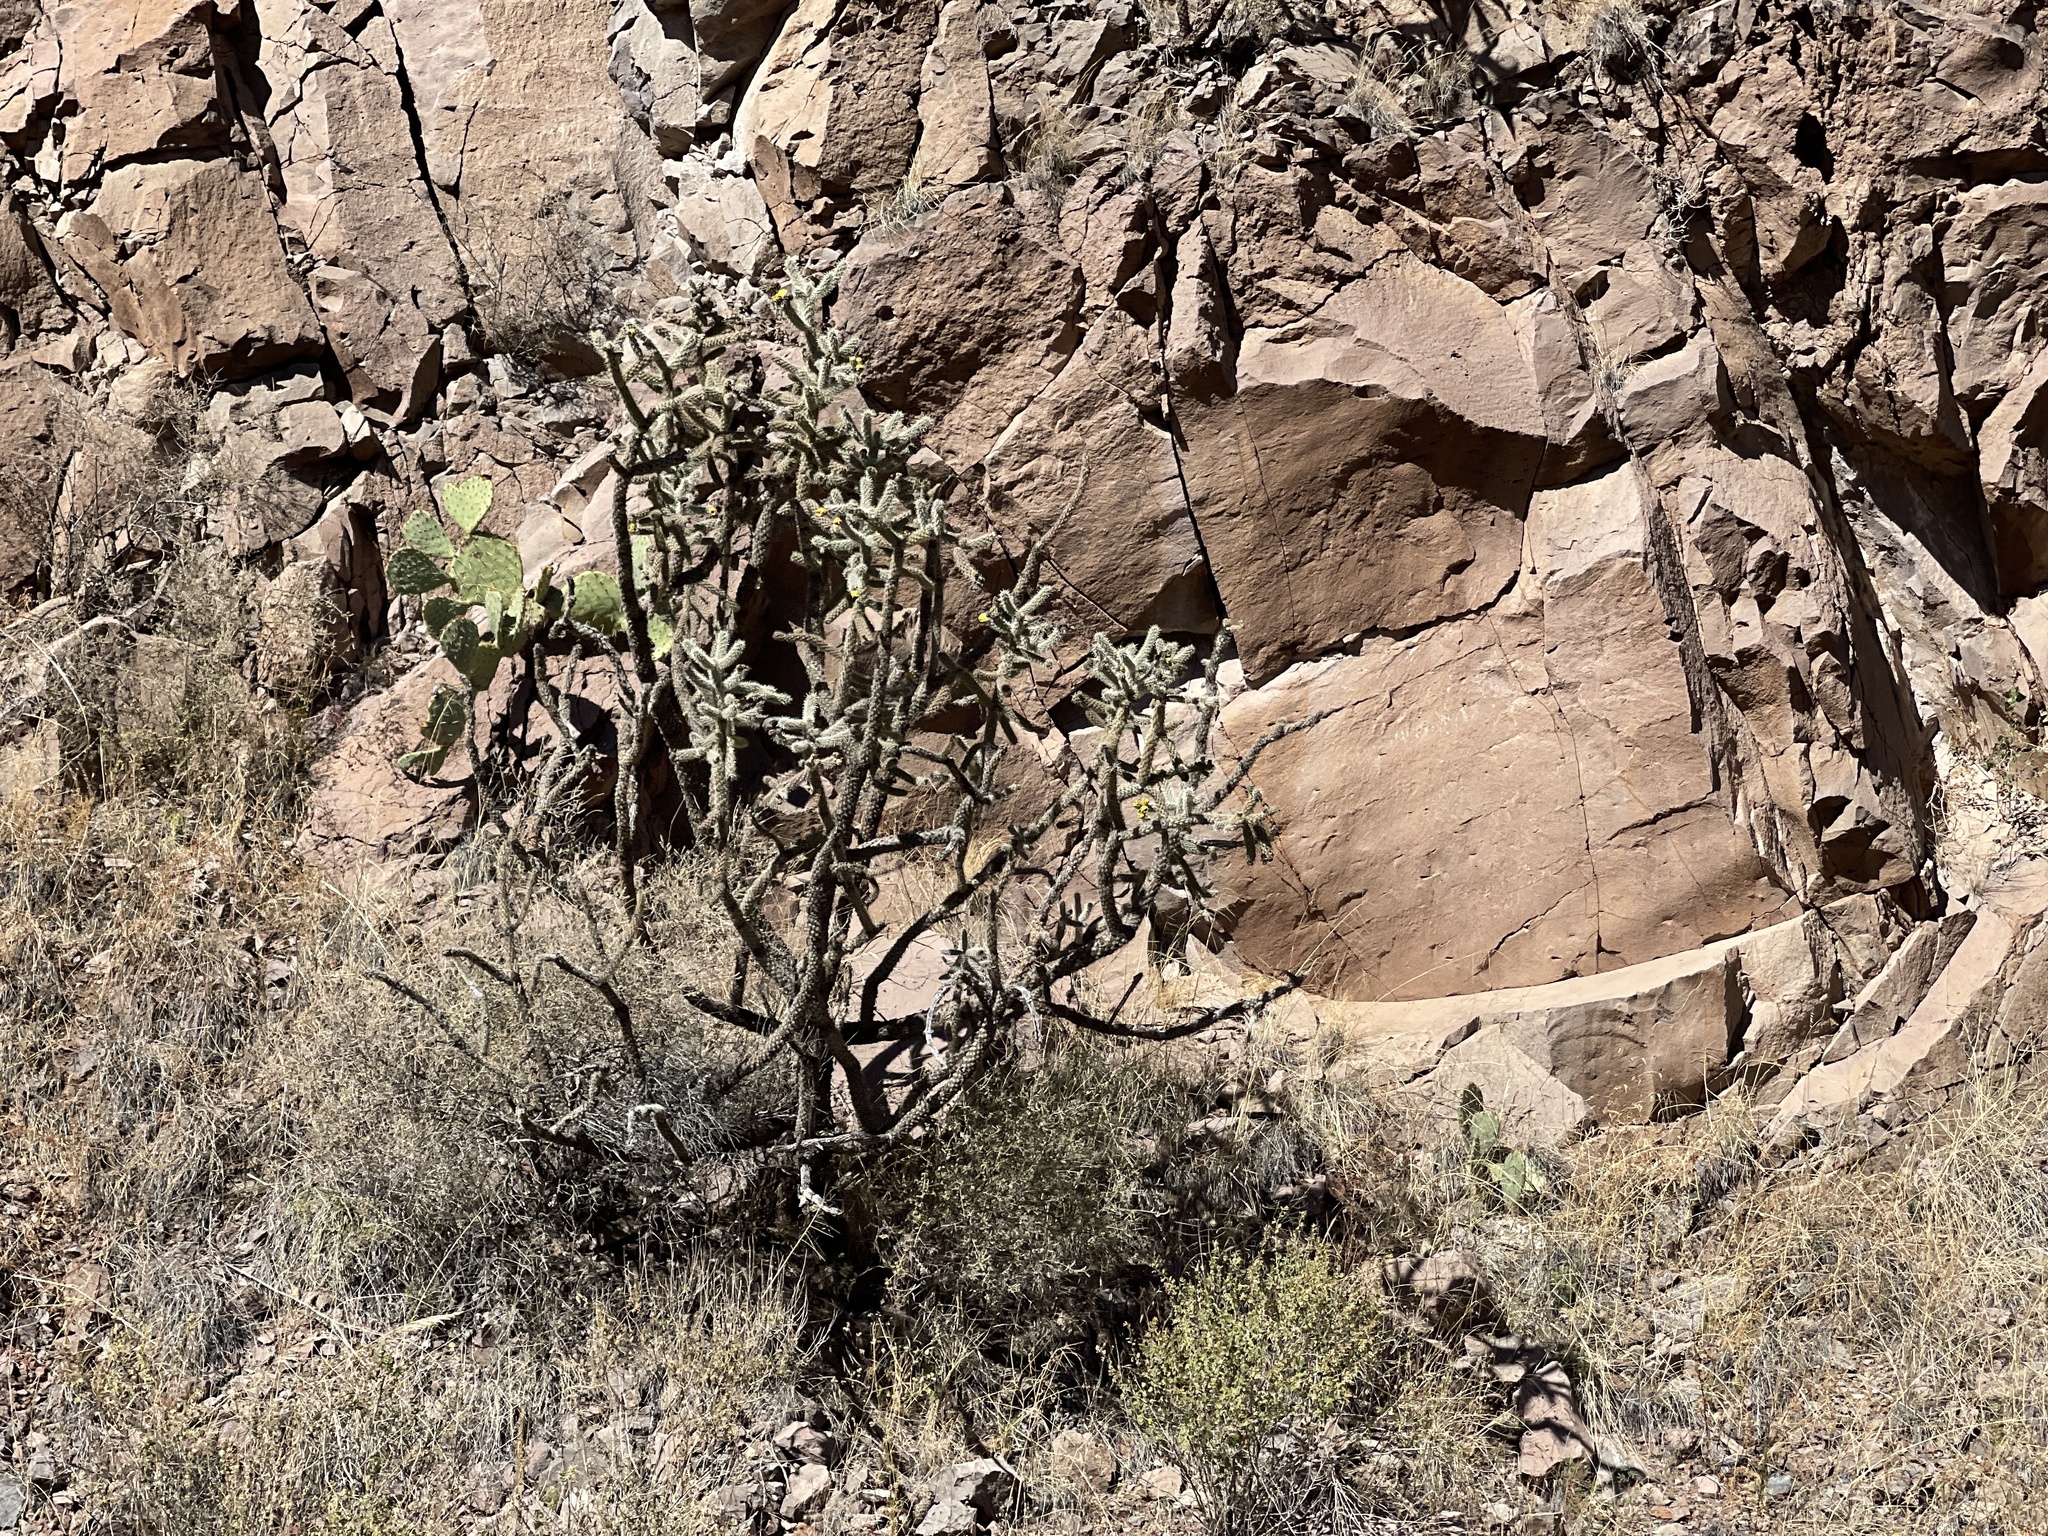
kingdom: Plantae
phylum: Tracheophyta
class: Magnoliopsida
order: Caryophyllales
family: Cactaceae
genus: Cylindropuntia
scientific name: Cylindropuntia imbricata
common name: Candelabrum cactus
